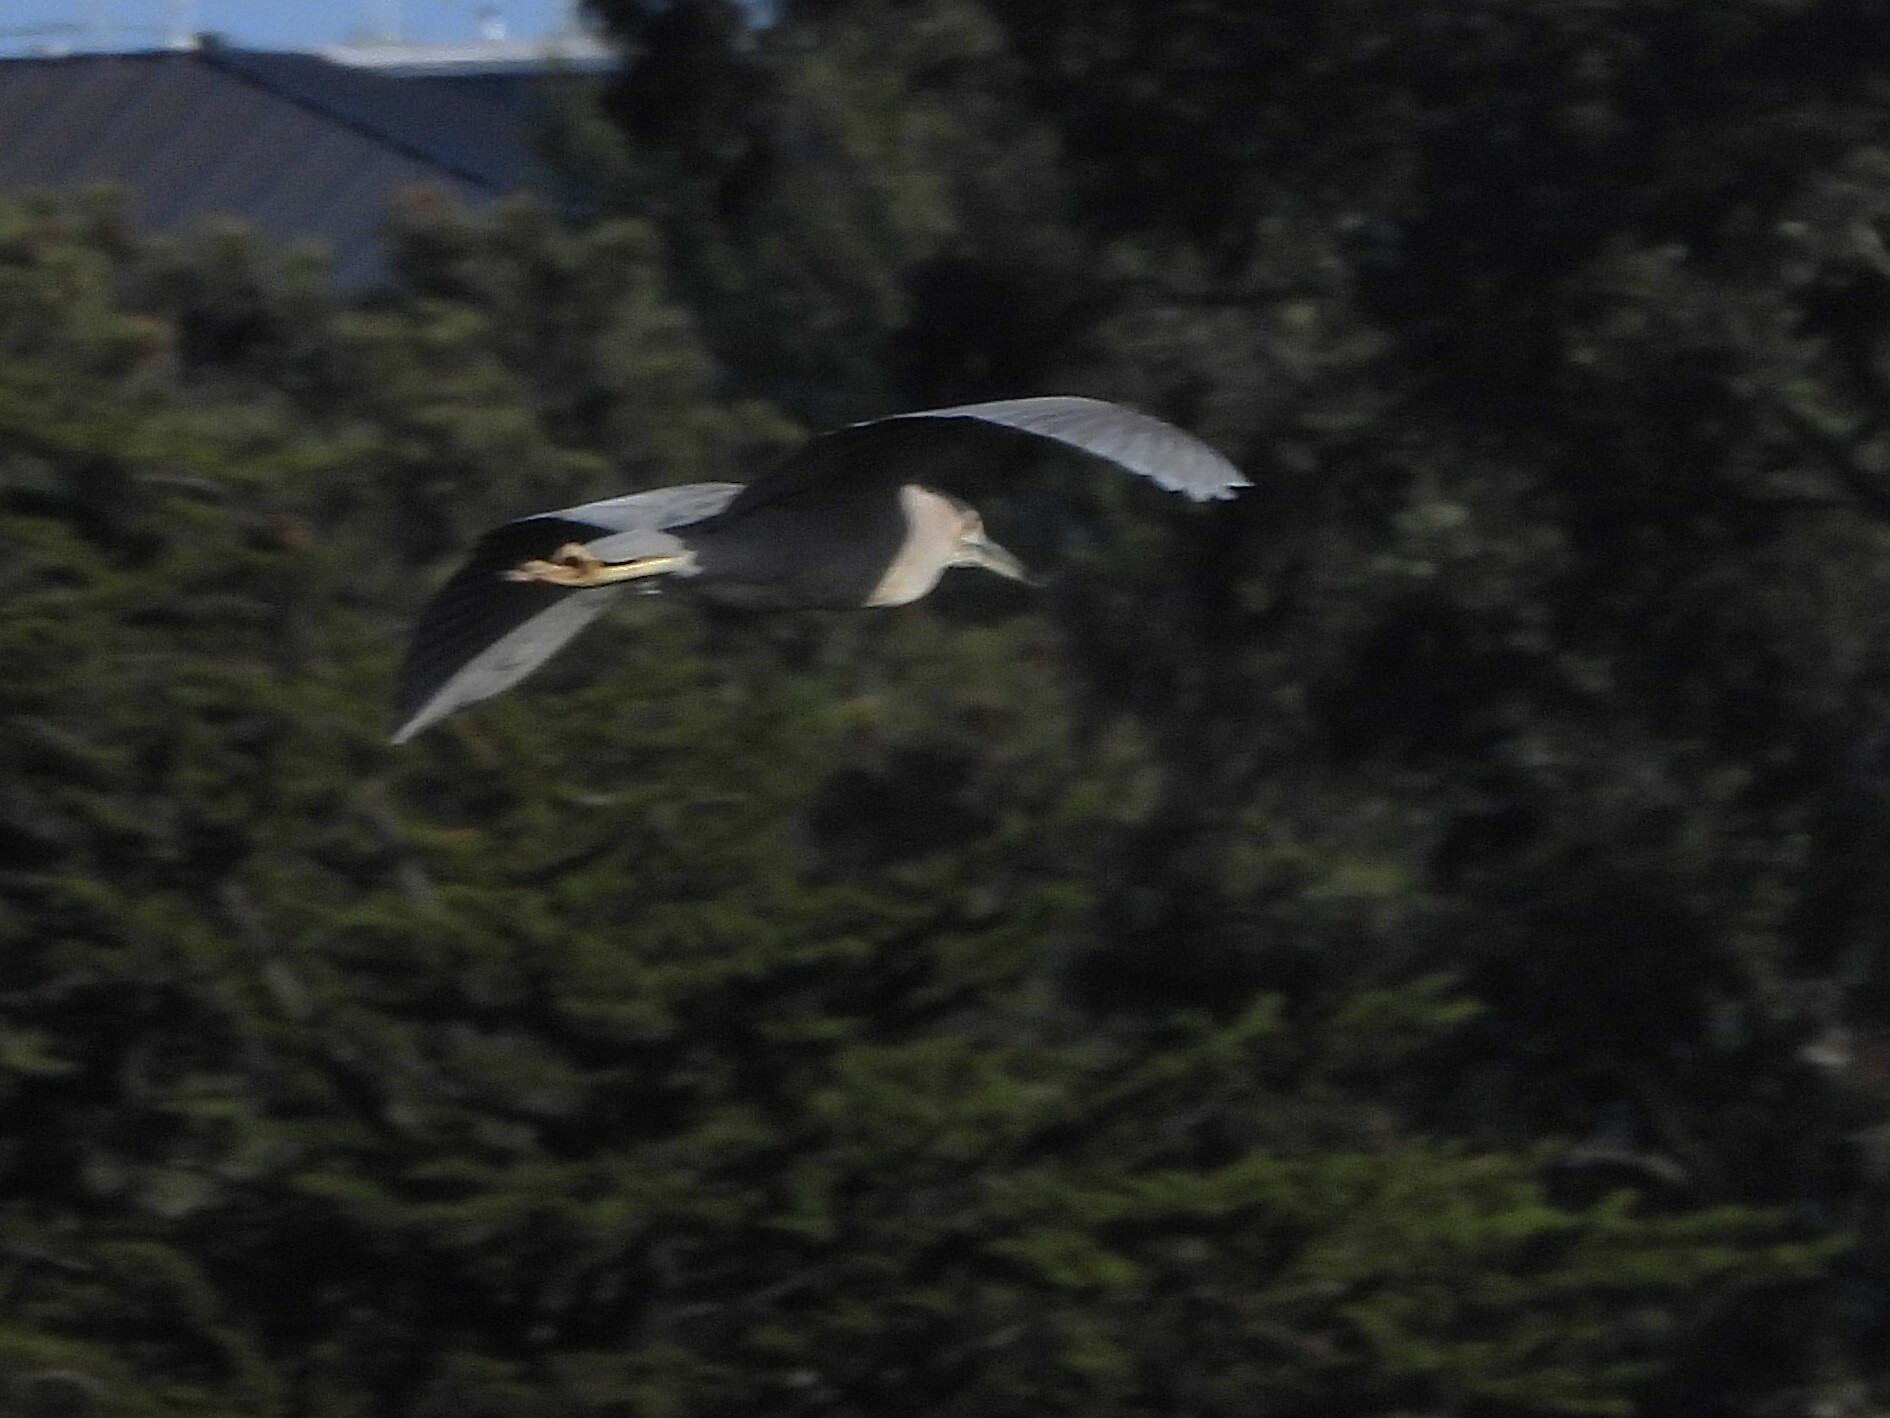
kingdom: Animalia
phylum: Chordata
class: Aves
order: Pelecaniformes
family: Ardeidae
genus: Nycticorax
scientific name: Nycticorax nycticorax
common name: Black-crowned night heron
